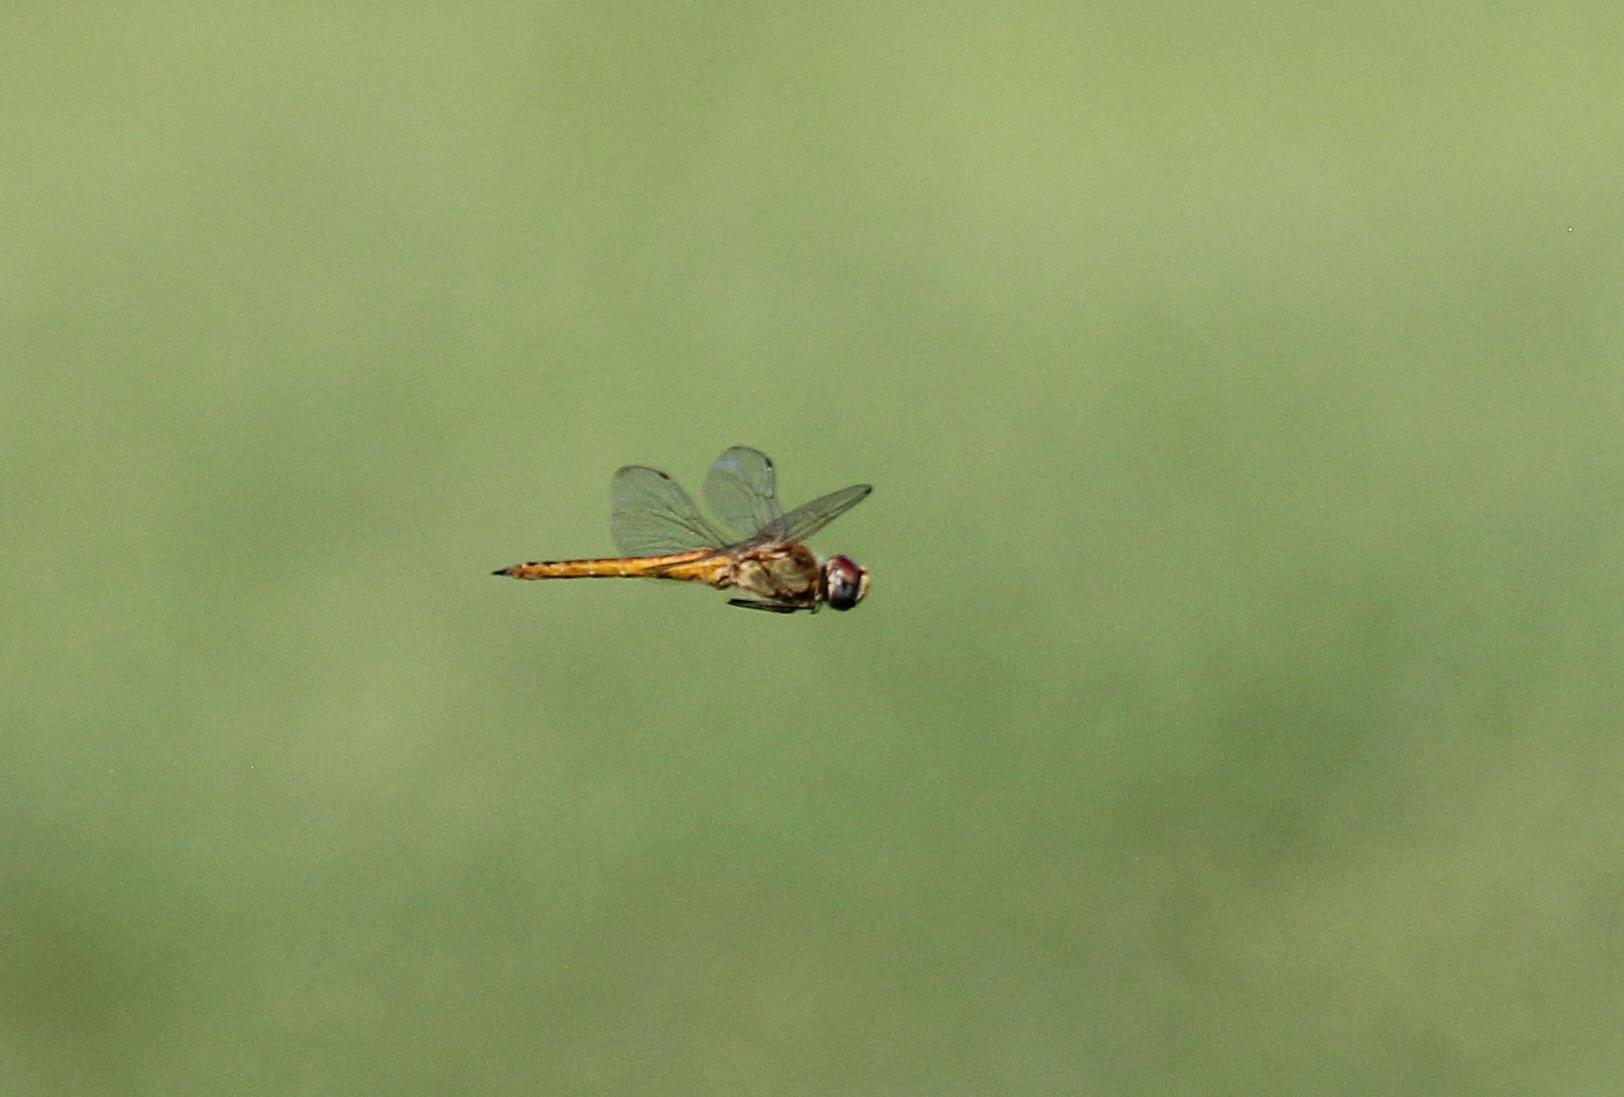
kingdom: Animalia
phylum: Arthropoda
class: Insecta
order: Odonata
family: Libellulidae
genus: Pantala
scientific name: Pantala flavescens
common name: Wandering glider
